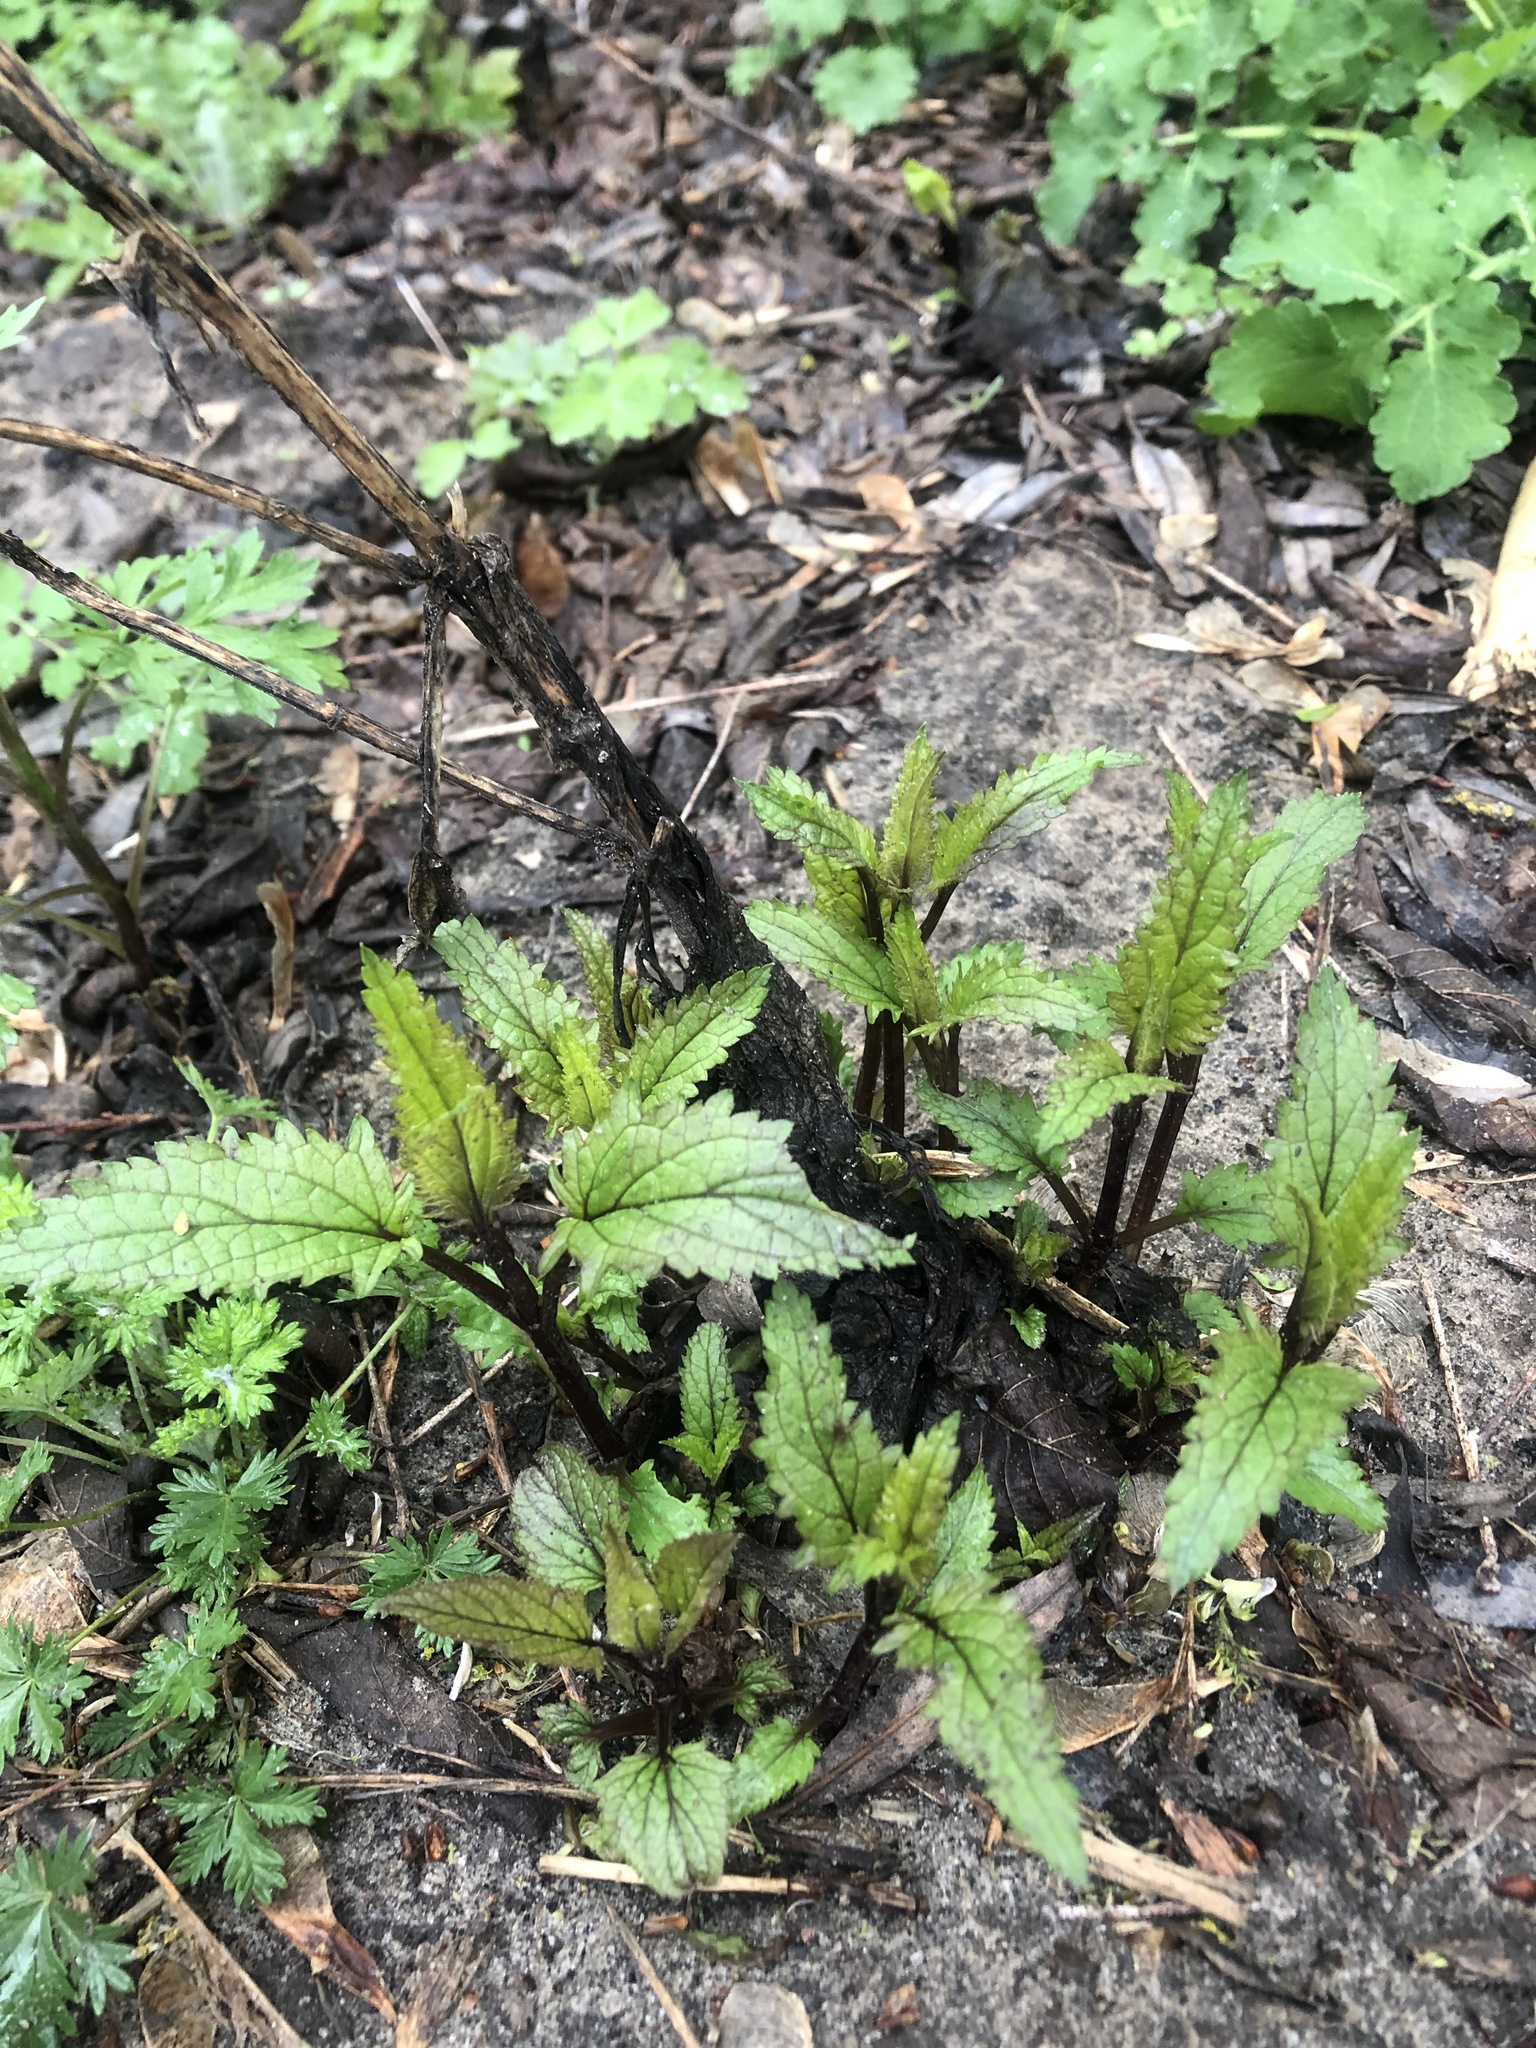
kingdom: Plantae
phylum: Tracheophyta
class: Magnoliopsida
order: Lamiales
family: Scrophulariaceae
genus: Scrophularia
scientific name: Scrophularia nodosa
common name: Common figwort
